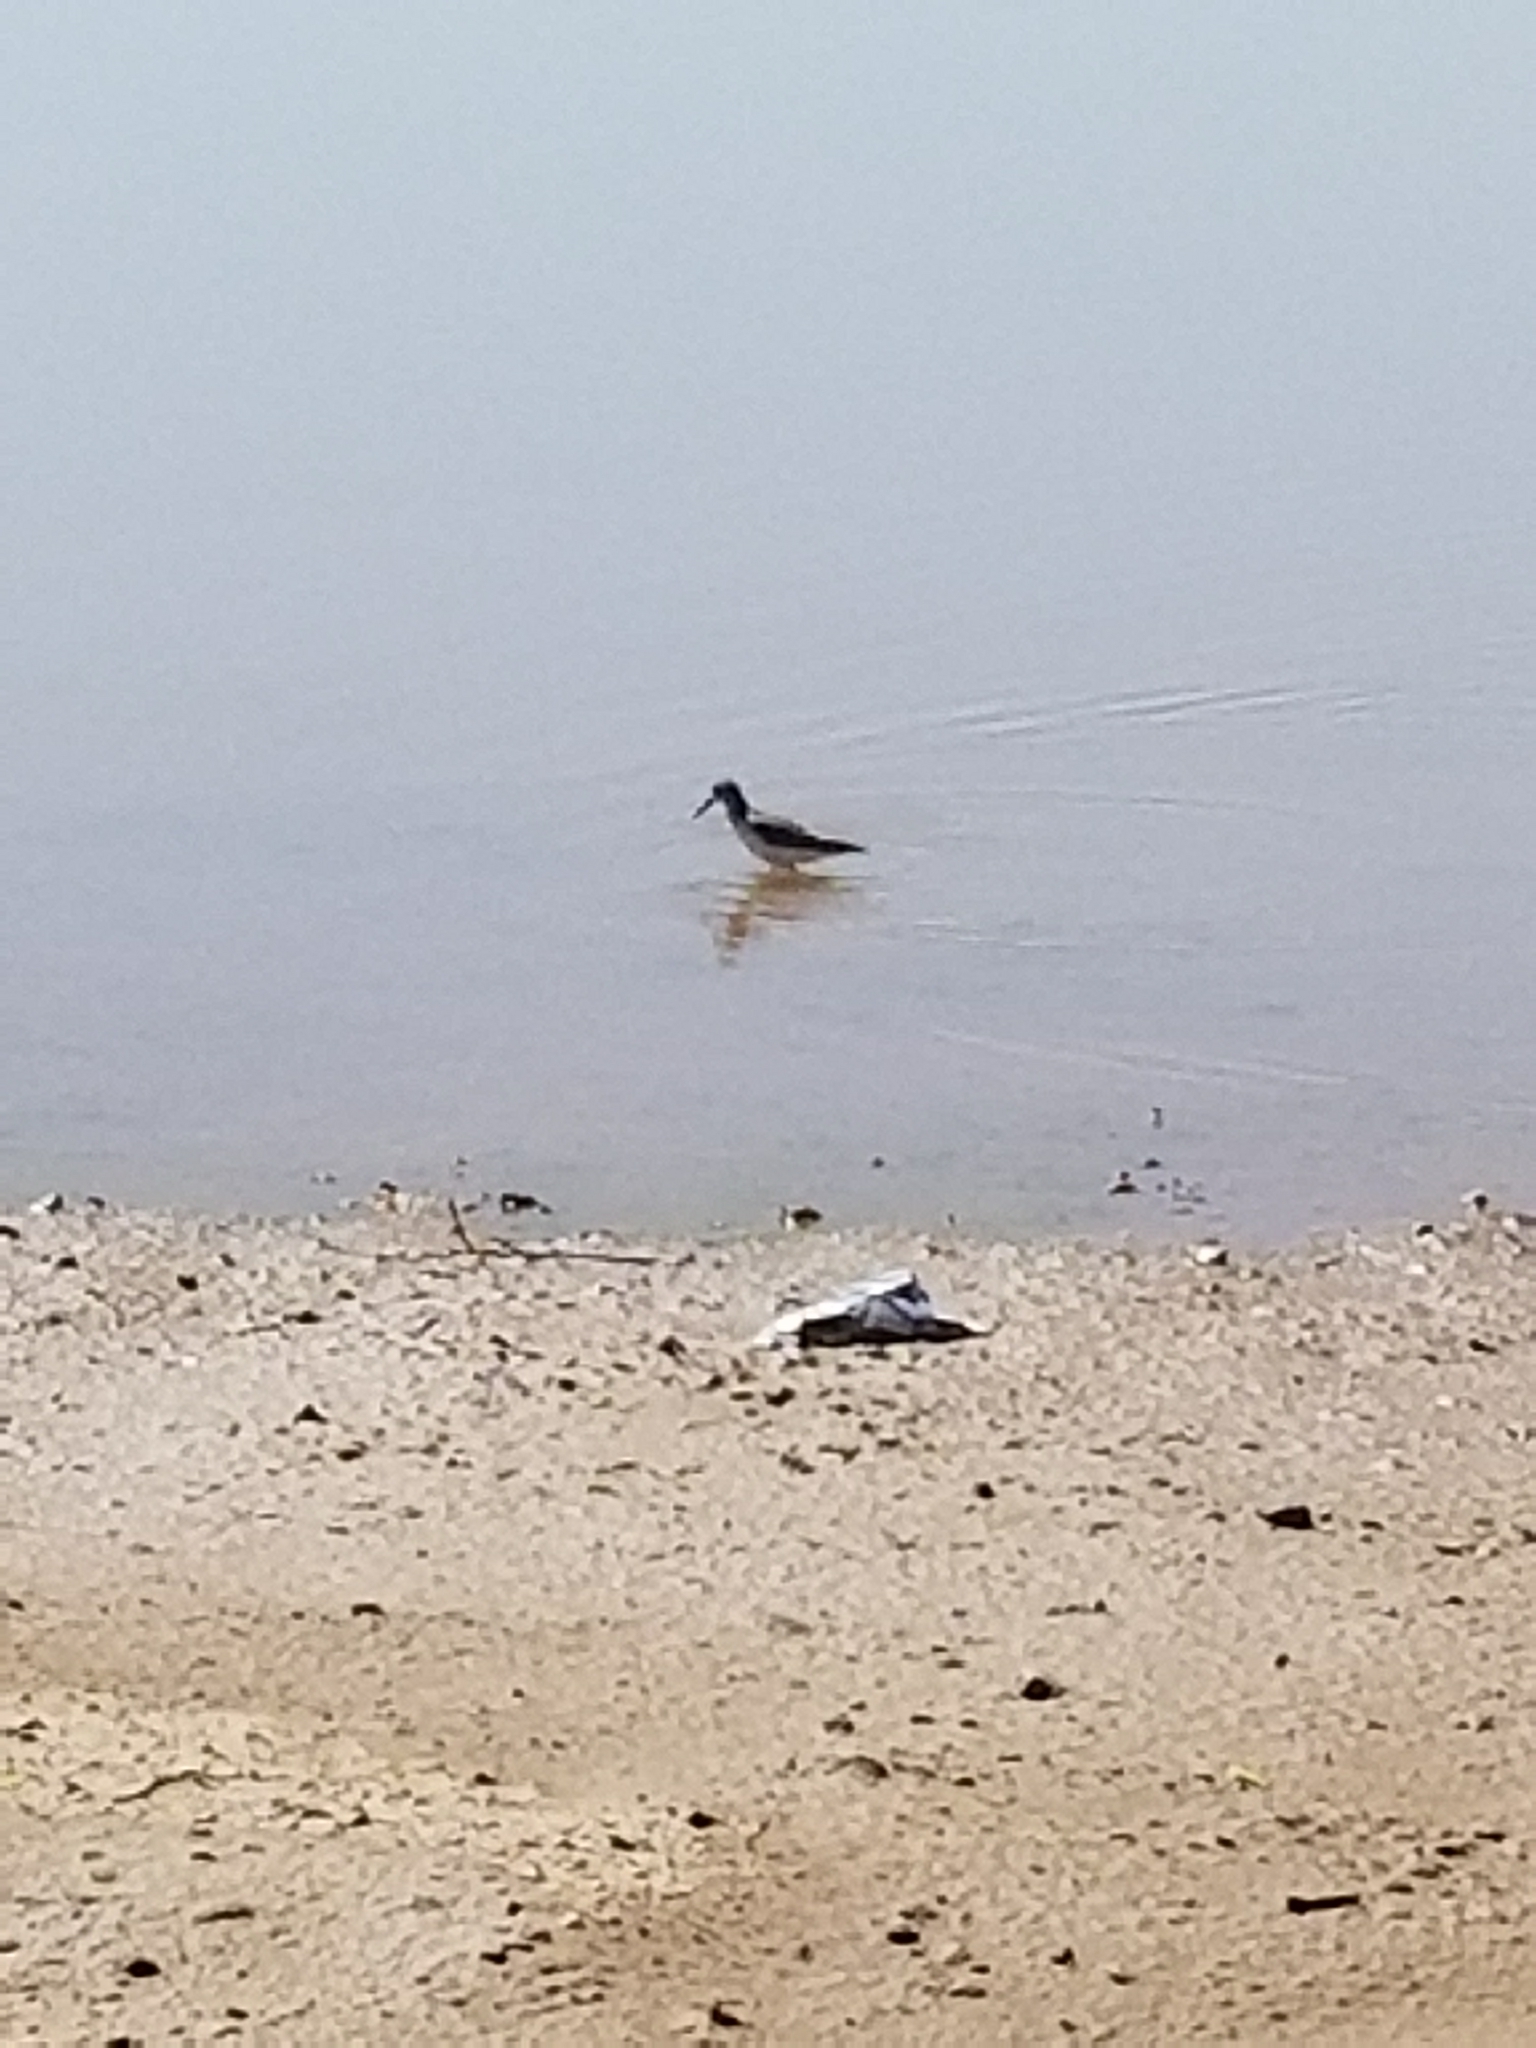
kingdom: Animalia
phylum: Chordata
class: Aves
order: Charadriiformes
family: Scolopacidae
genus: Calidris
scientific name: Calidris mauri
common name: Western sandpiper
